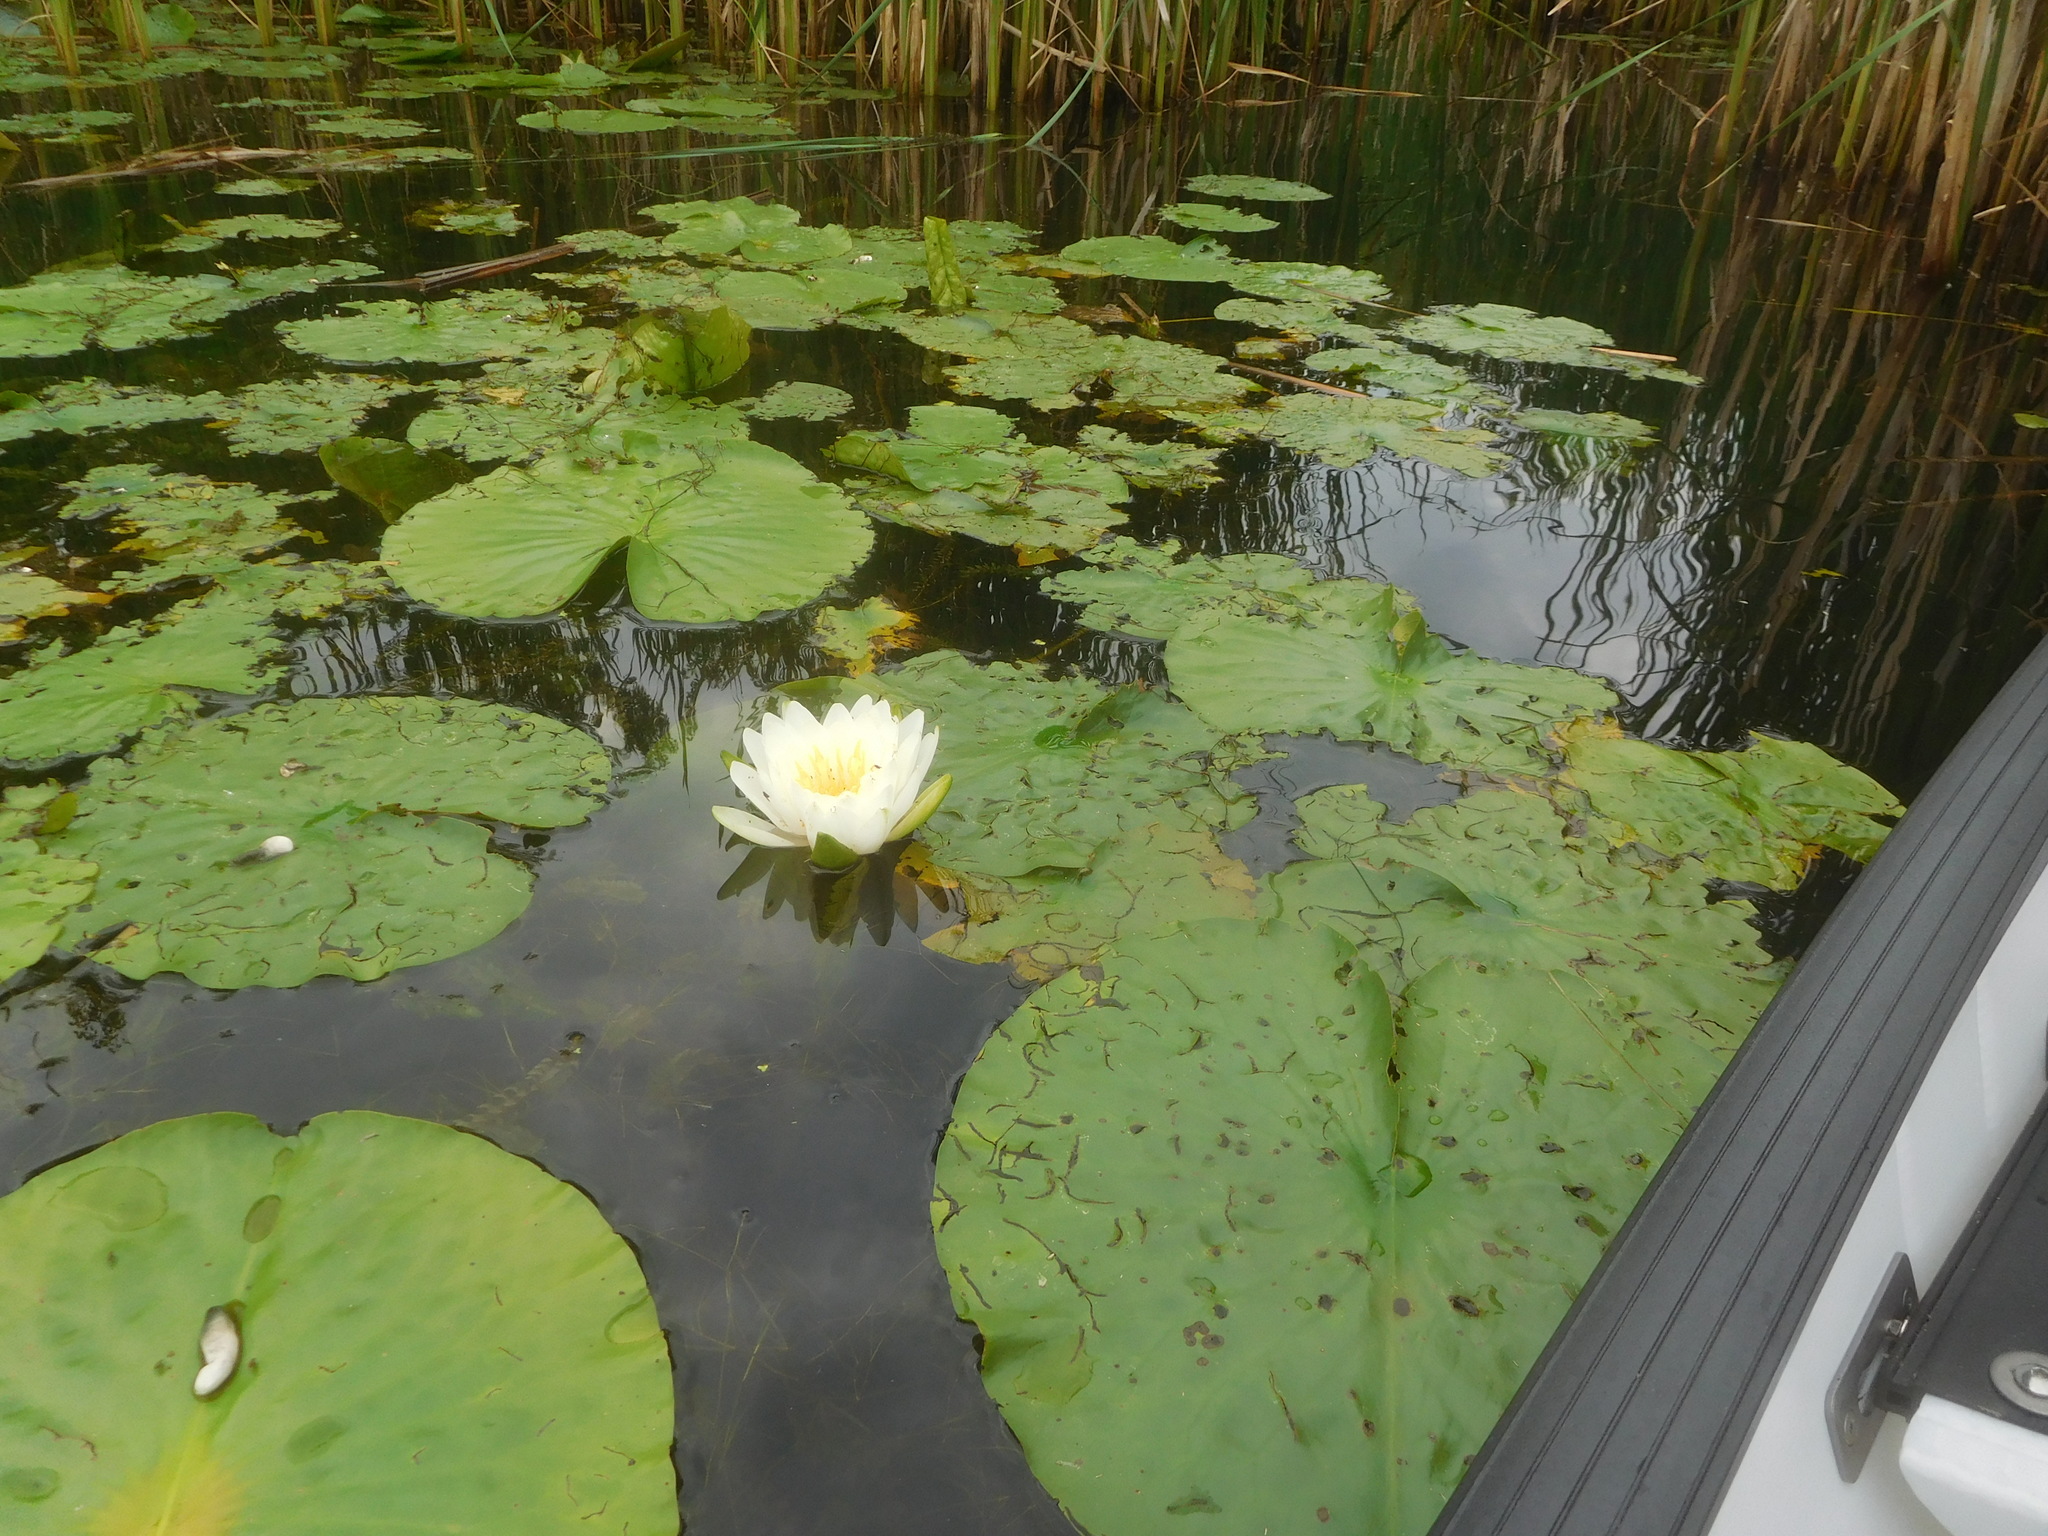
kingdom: Plantae
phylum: Tracheophyta
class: Magnoliopsida
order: Nymphaeales
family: Nymphaeaceae
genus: Nymphaea
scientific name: Nymphaea odorata
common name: Fragrant water-lily
